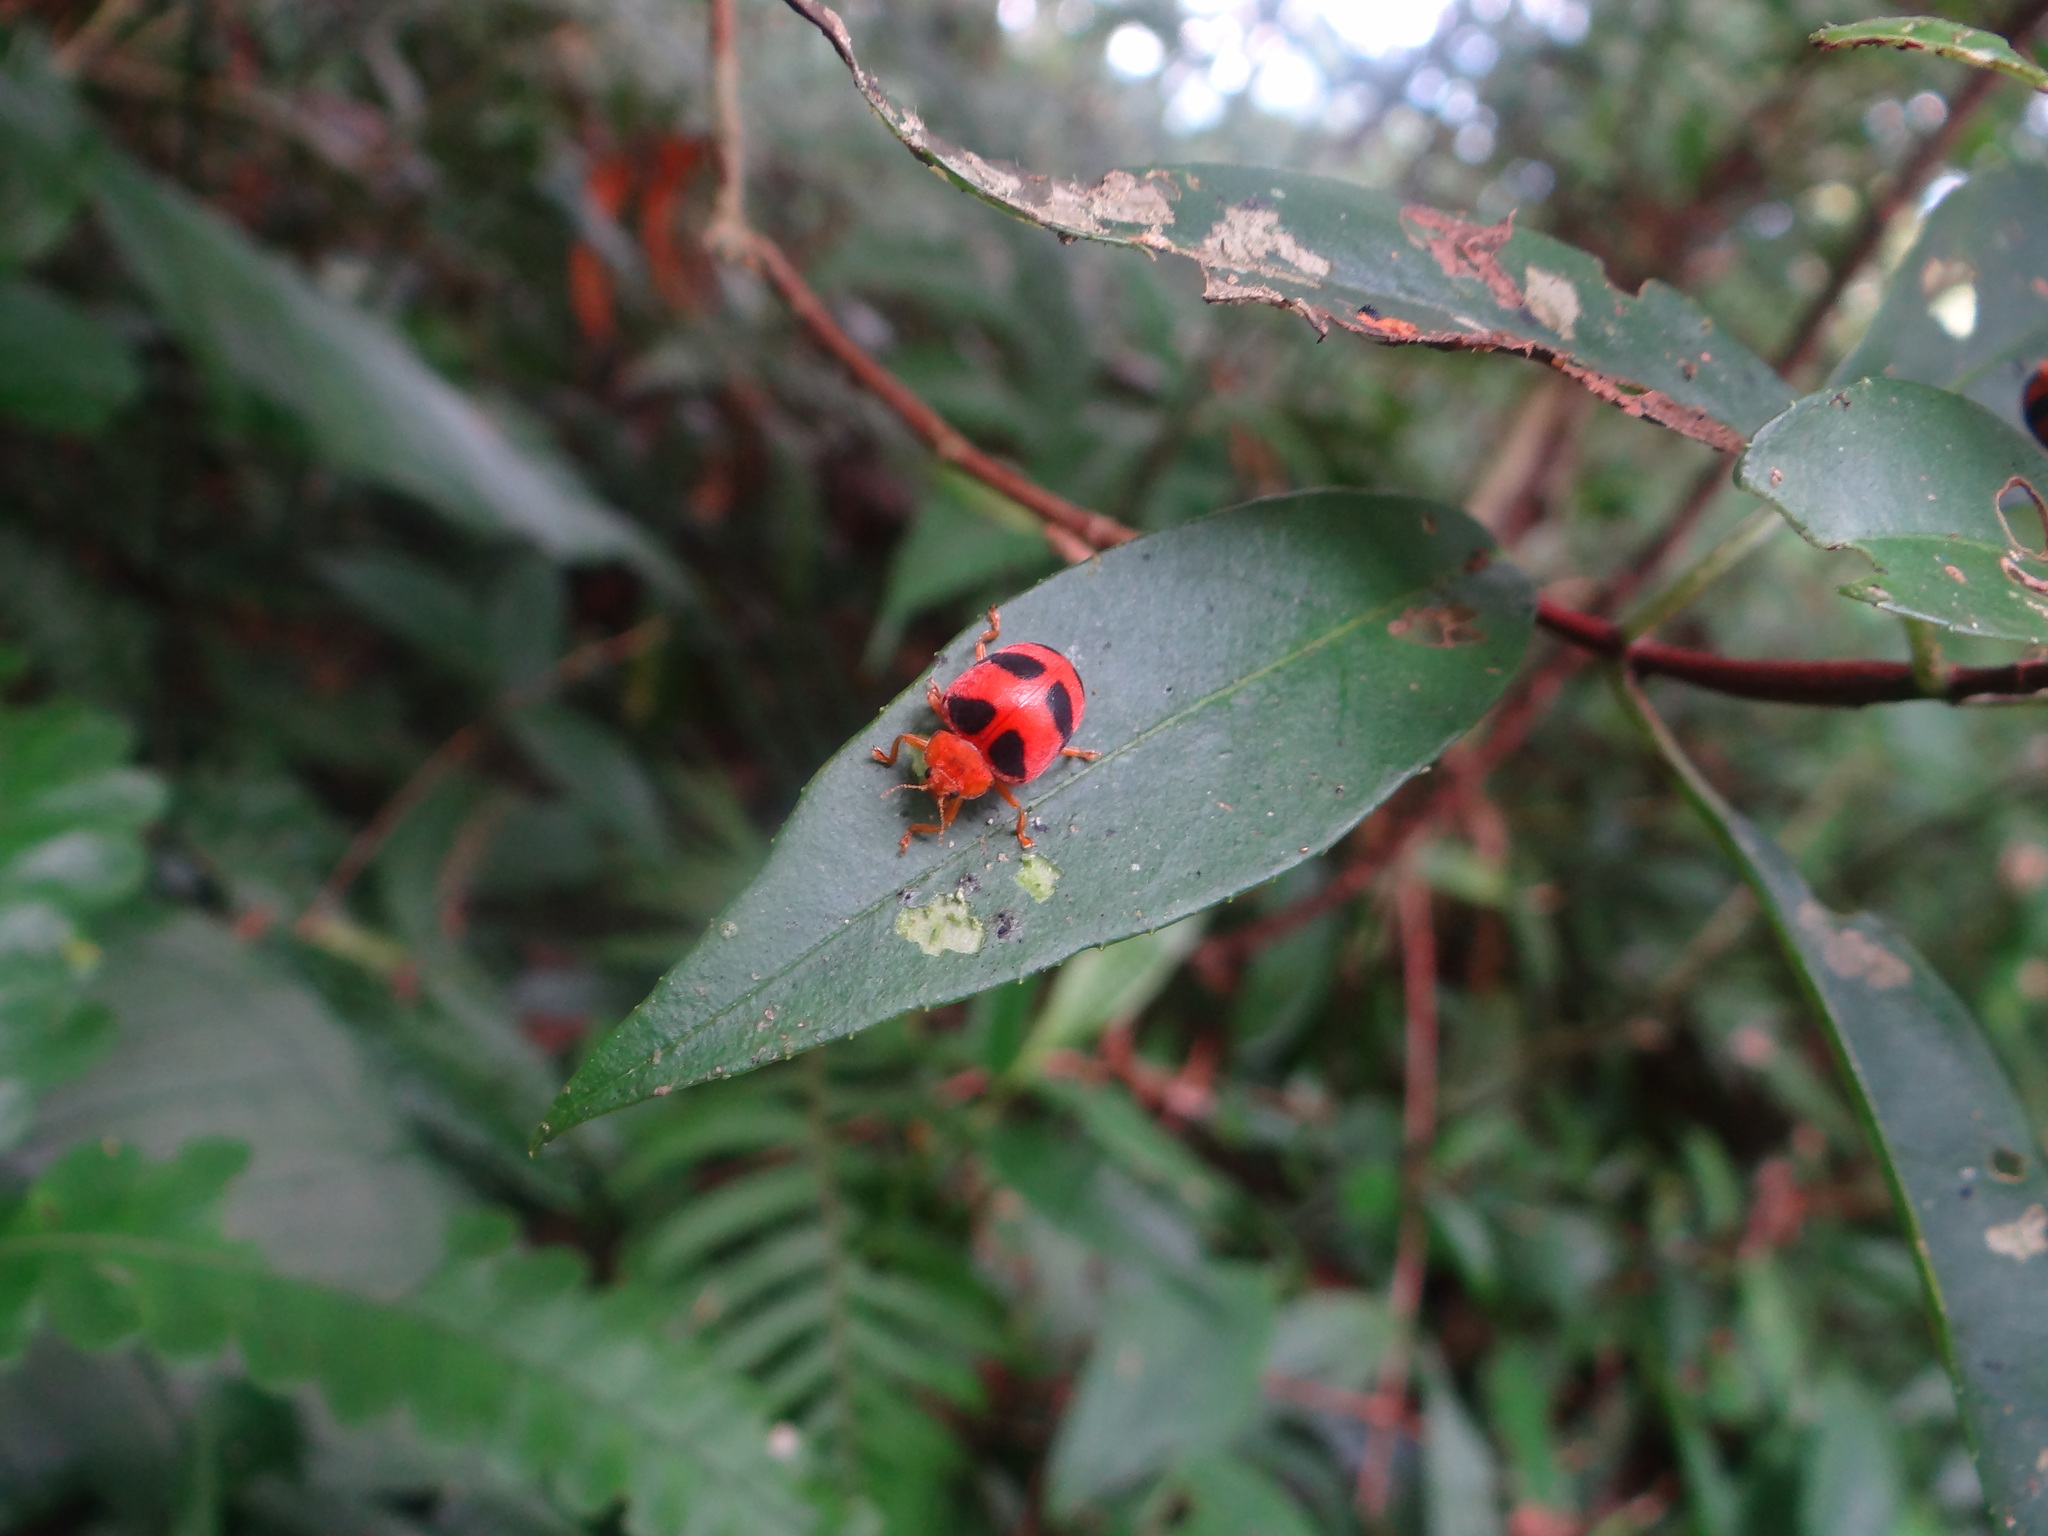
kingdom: Animalia
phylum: Arthropoda
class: Insecta
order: Coleoptera
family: Coccinellidae
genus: Epilachna
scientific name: Epilachna sauteri
